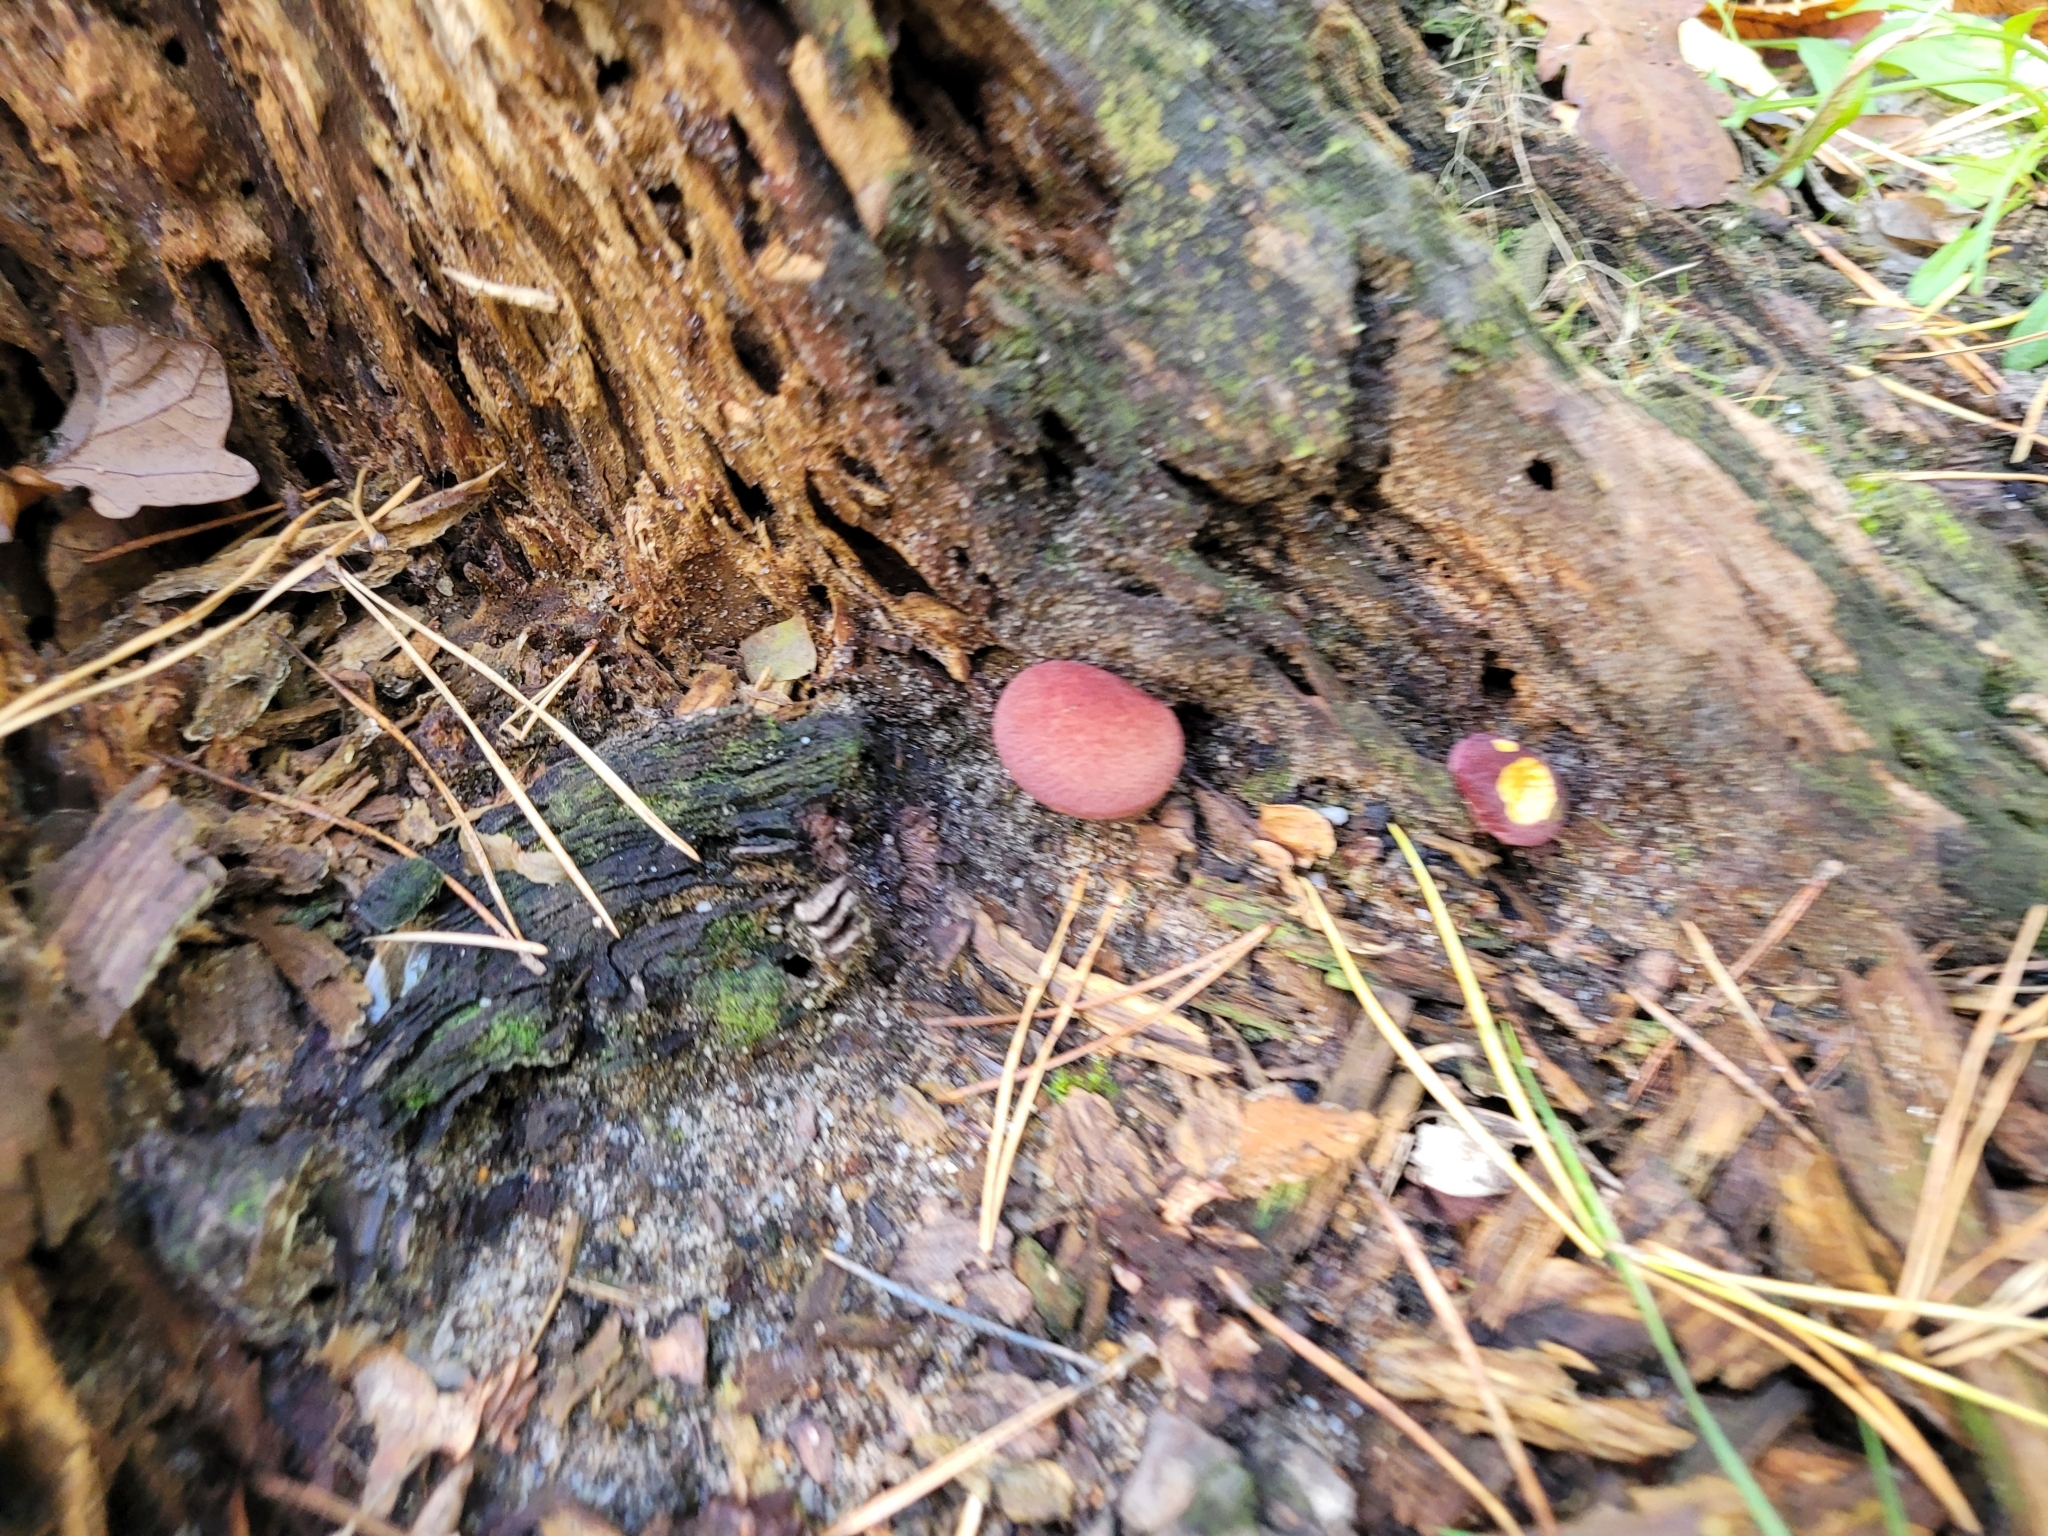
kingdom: Fungi
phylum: Basidiomycota
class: Agaricomycetes
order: Agaricales
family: Tricholomataceae
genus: Tricholomopsis
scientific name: Tricholomopsis rutilans
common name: Plums and custard
